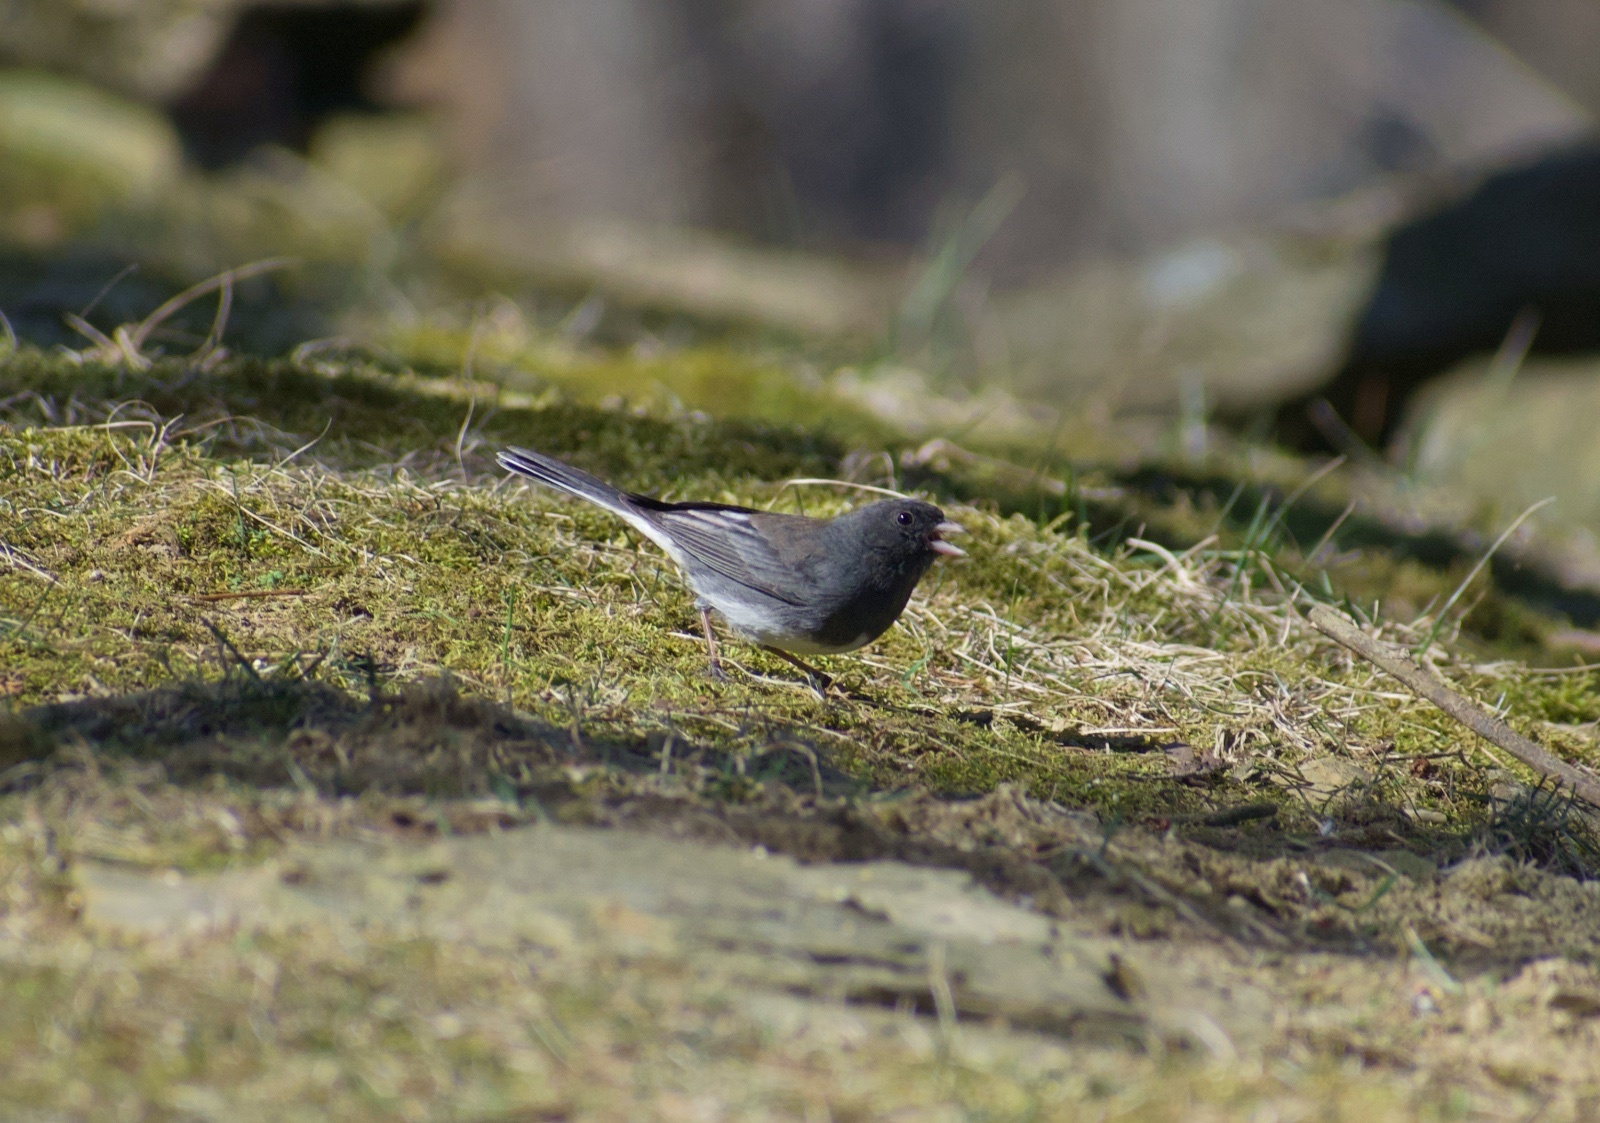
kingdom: Animalia
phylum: Chordata
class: Aves
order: Passeriformes
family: Passerellidae
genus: Junco
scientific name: Junco hyemalis
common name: Dark-eyed junco
